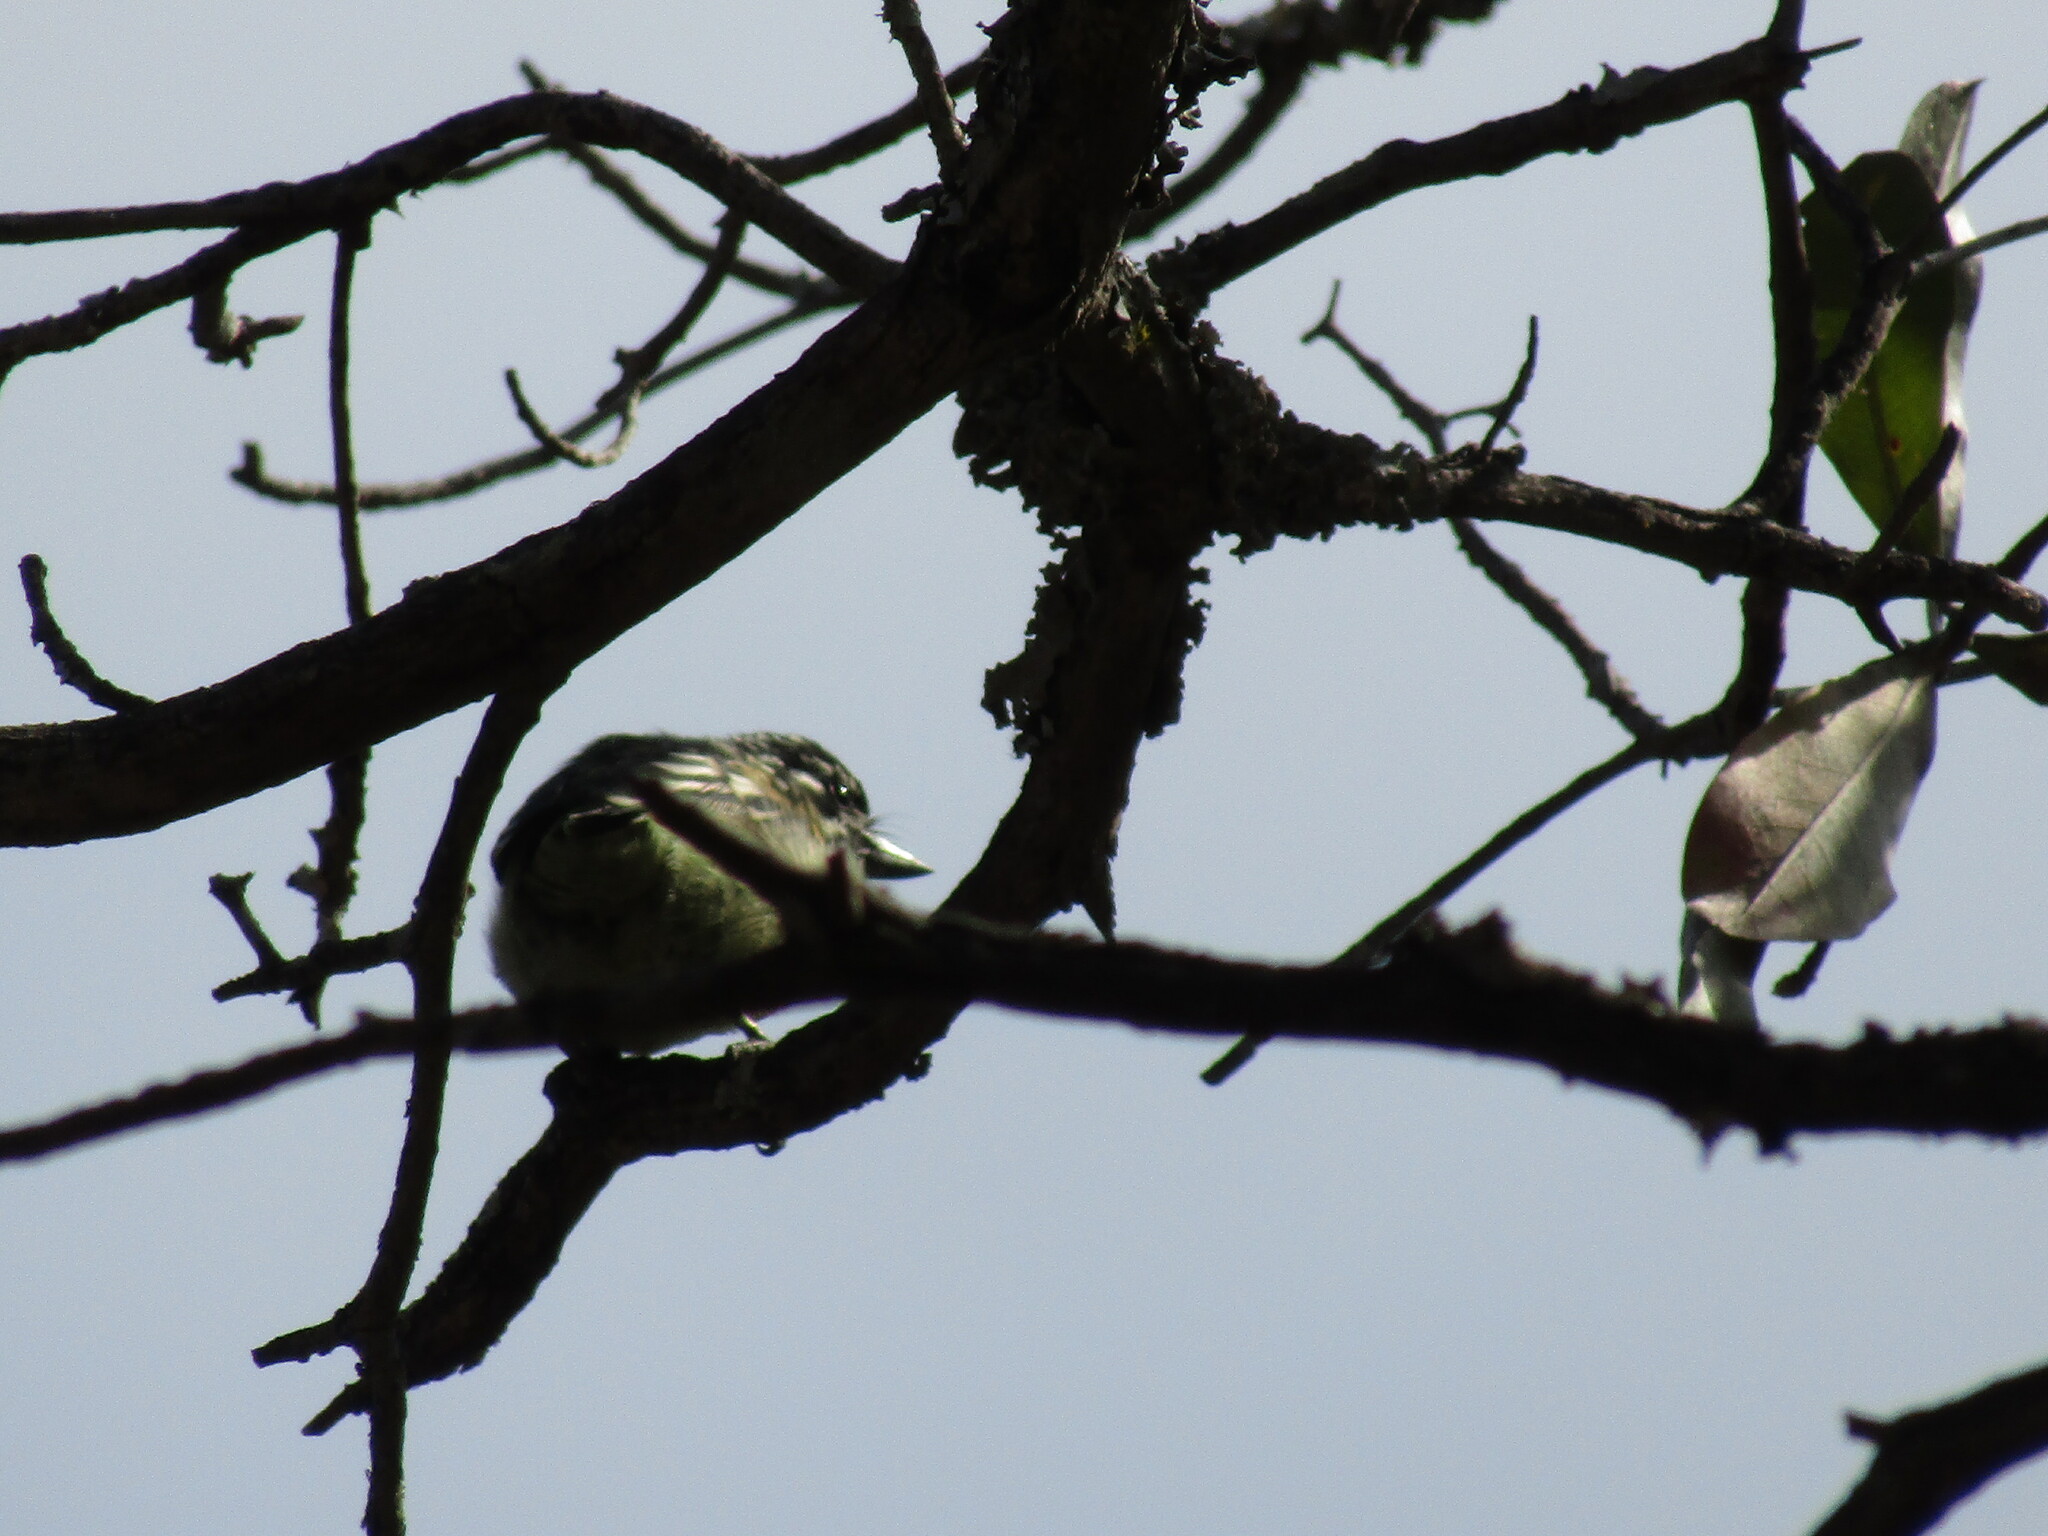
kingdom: Animalia
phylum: Chordata
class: Aves
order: Piciformes
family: Lybiidae
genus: Pogoniulus
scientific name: Pogoniulus chrysoconus
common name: Yellow-fronted tinkerbird
